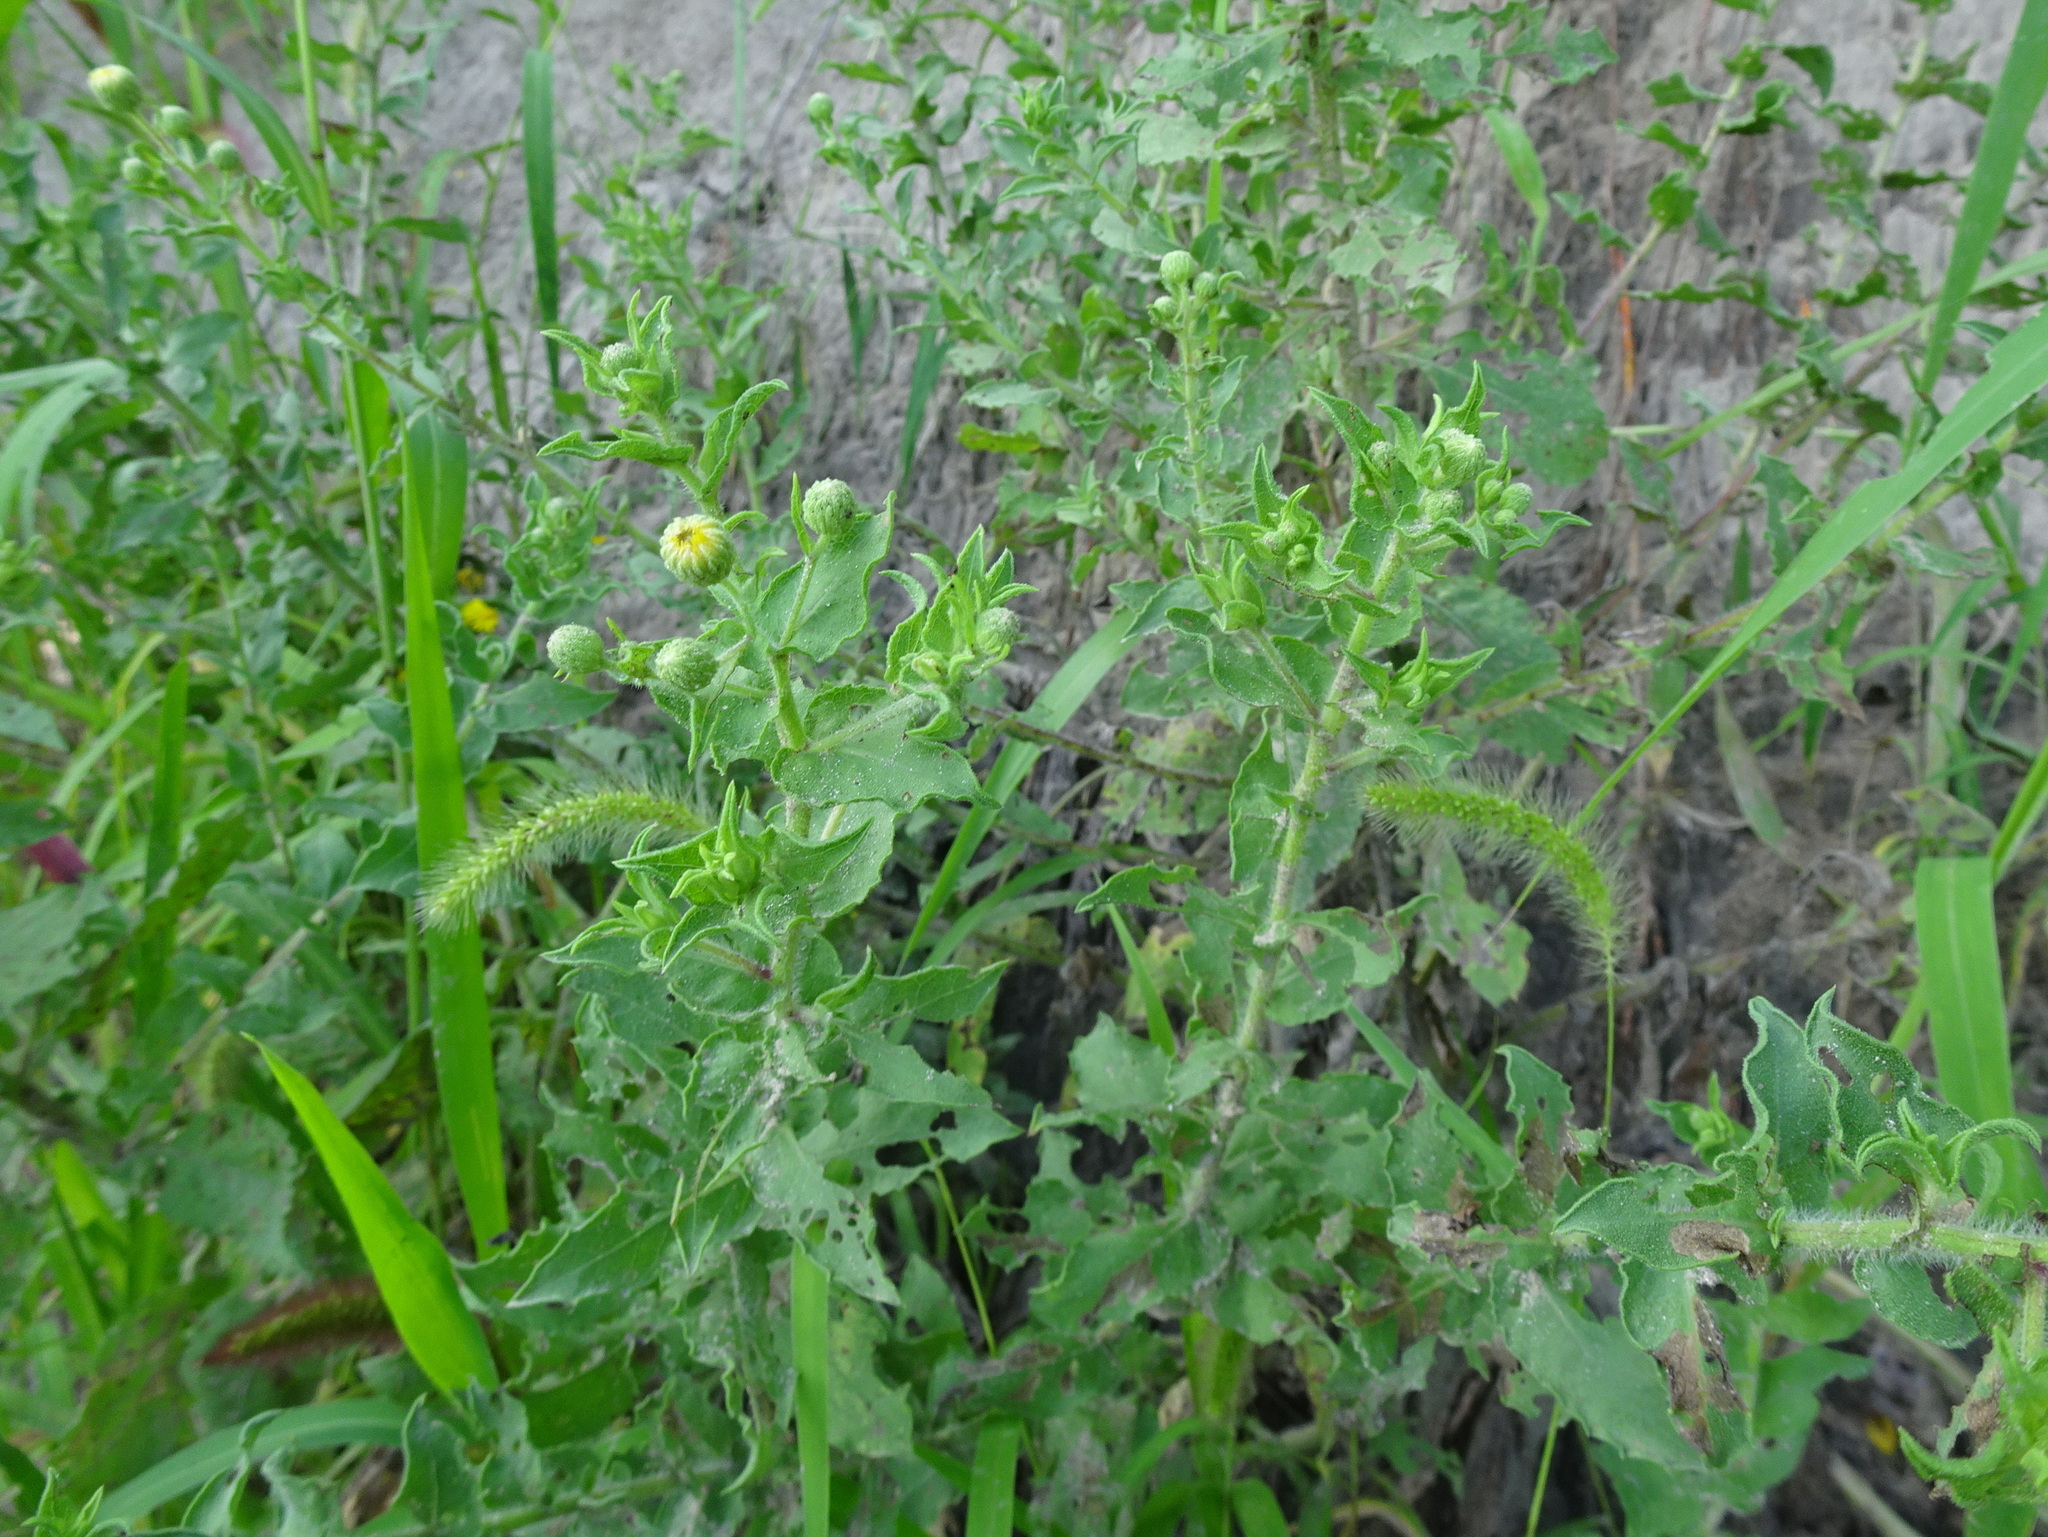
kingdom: Plantae
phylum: Tracheophyta
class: Magnoliopsida
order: Asterales
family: Asteraceae
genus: Heterotheca
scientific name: Heterotheca subaxillaris
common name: Camphorweed
